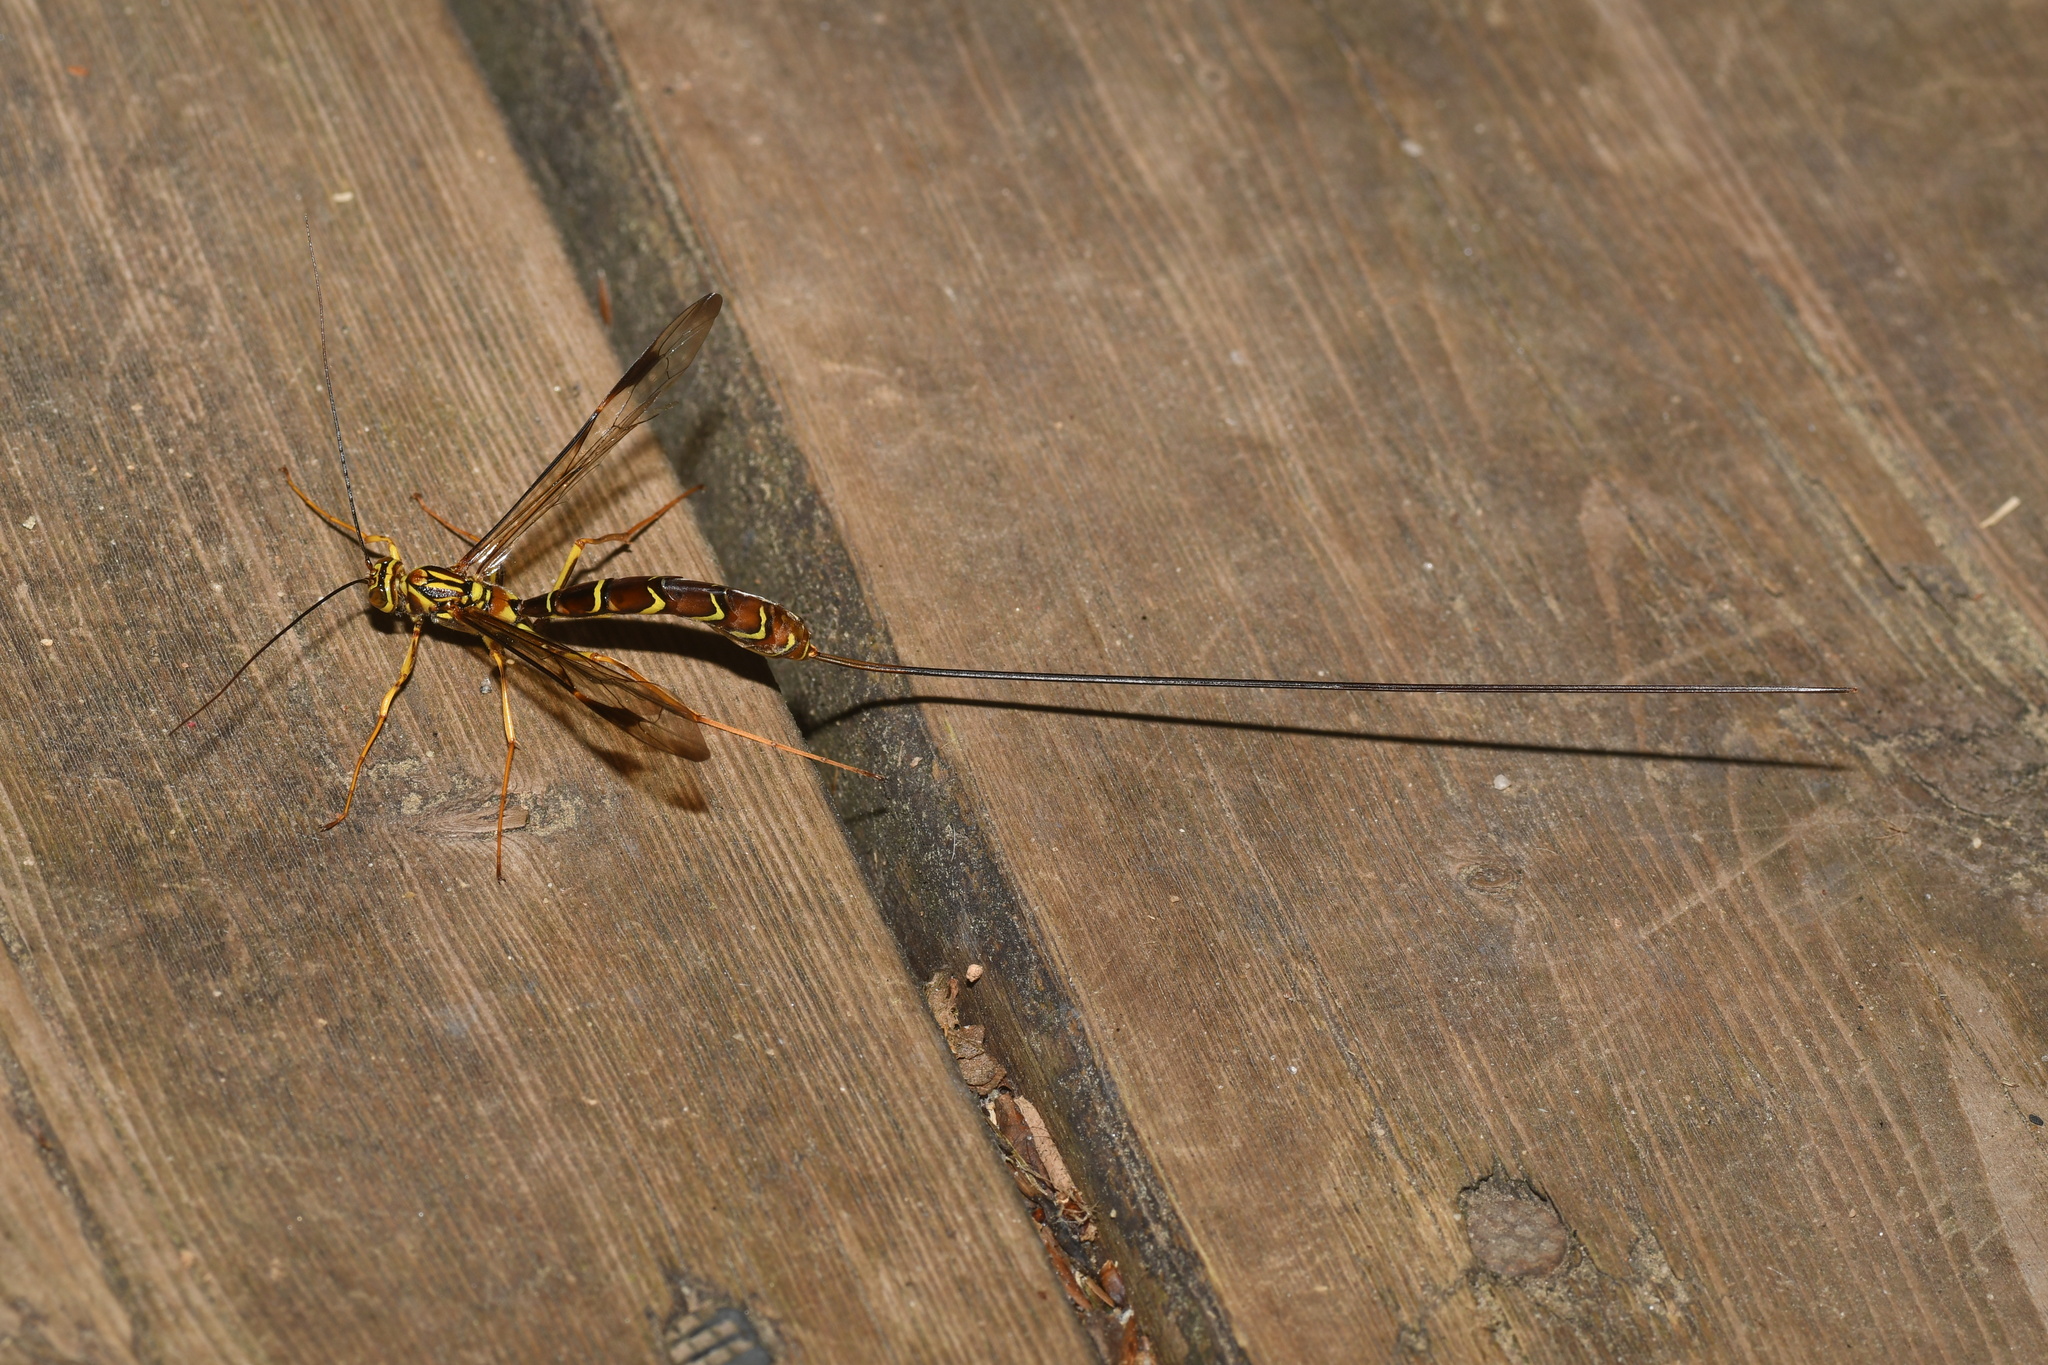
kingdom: Animalia
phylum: Arthropoda
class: Insecta
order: Hymenoptera
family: Ichneumonidae
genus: Megarhyssa
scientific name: Megarhyssa macrura
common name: Long-tailed giant ichneumonid wasp
